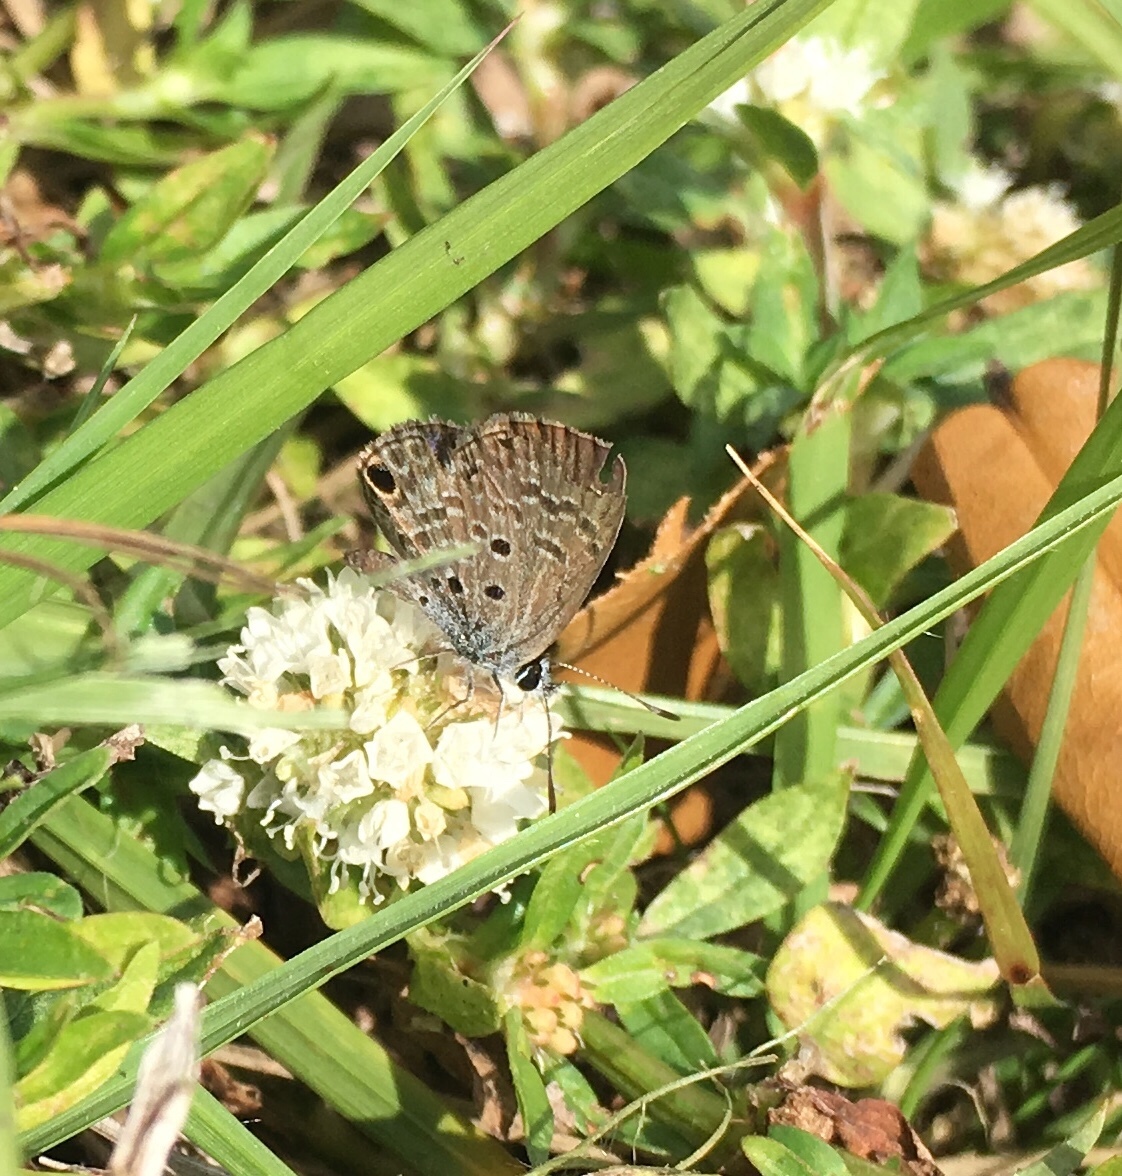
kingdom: Animalia
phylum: Arthropoda
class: Insecta
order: Lepidoptera
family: Lycaenidae
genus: Hemiargus
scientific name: Hemiargus ceraunus
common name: Ceraunus blue
